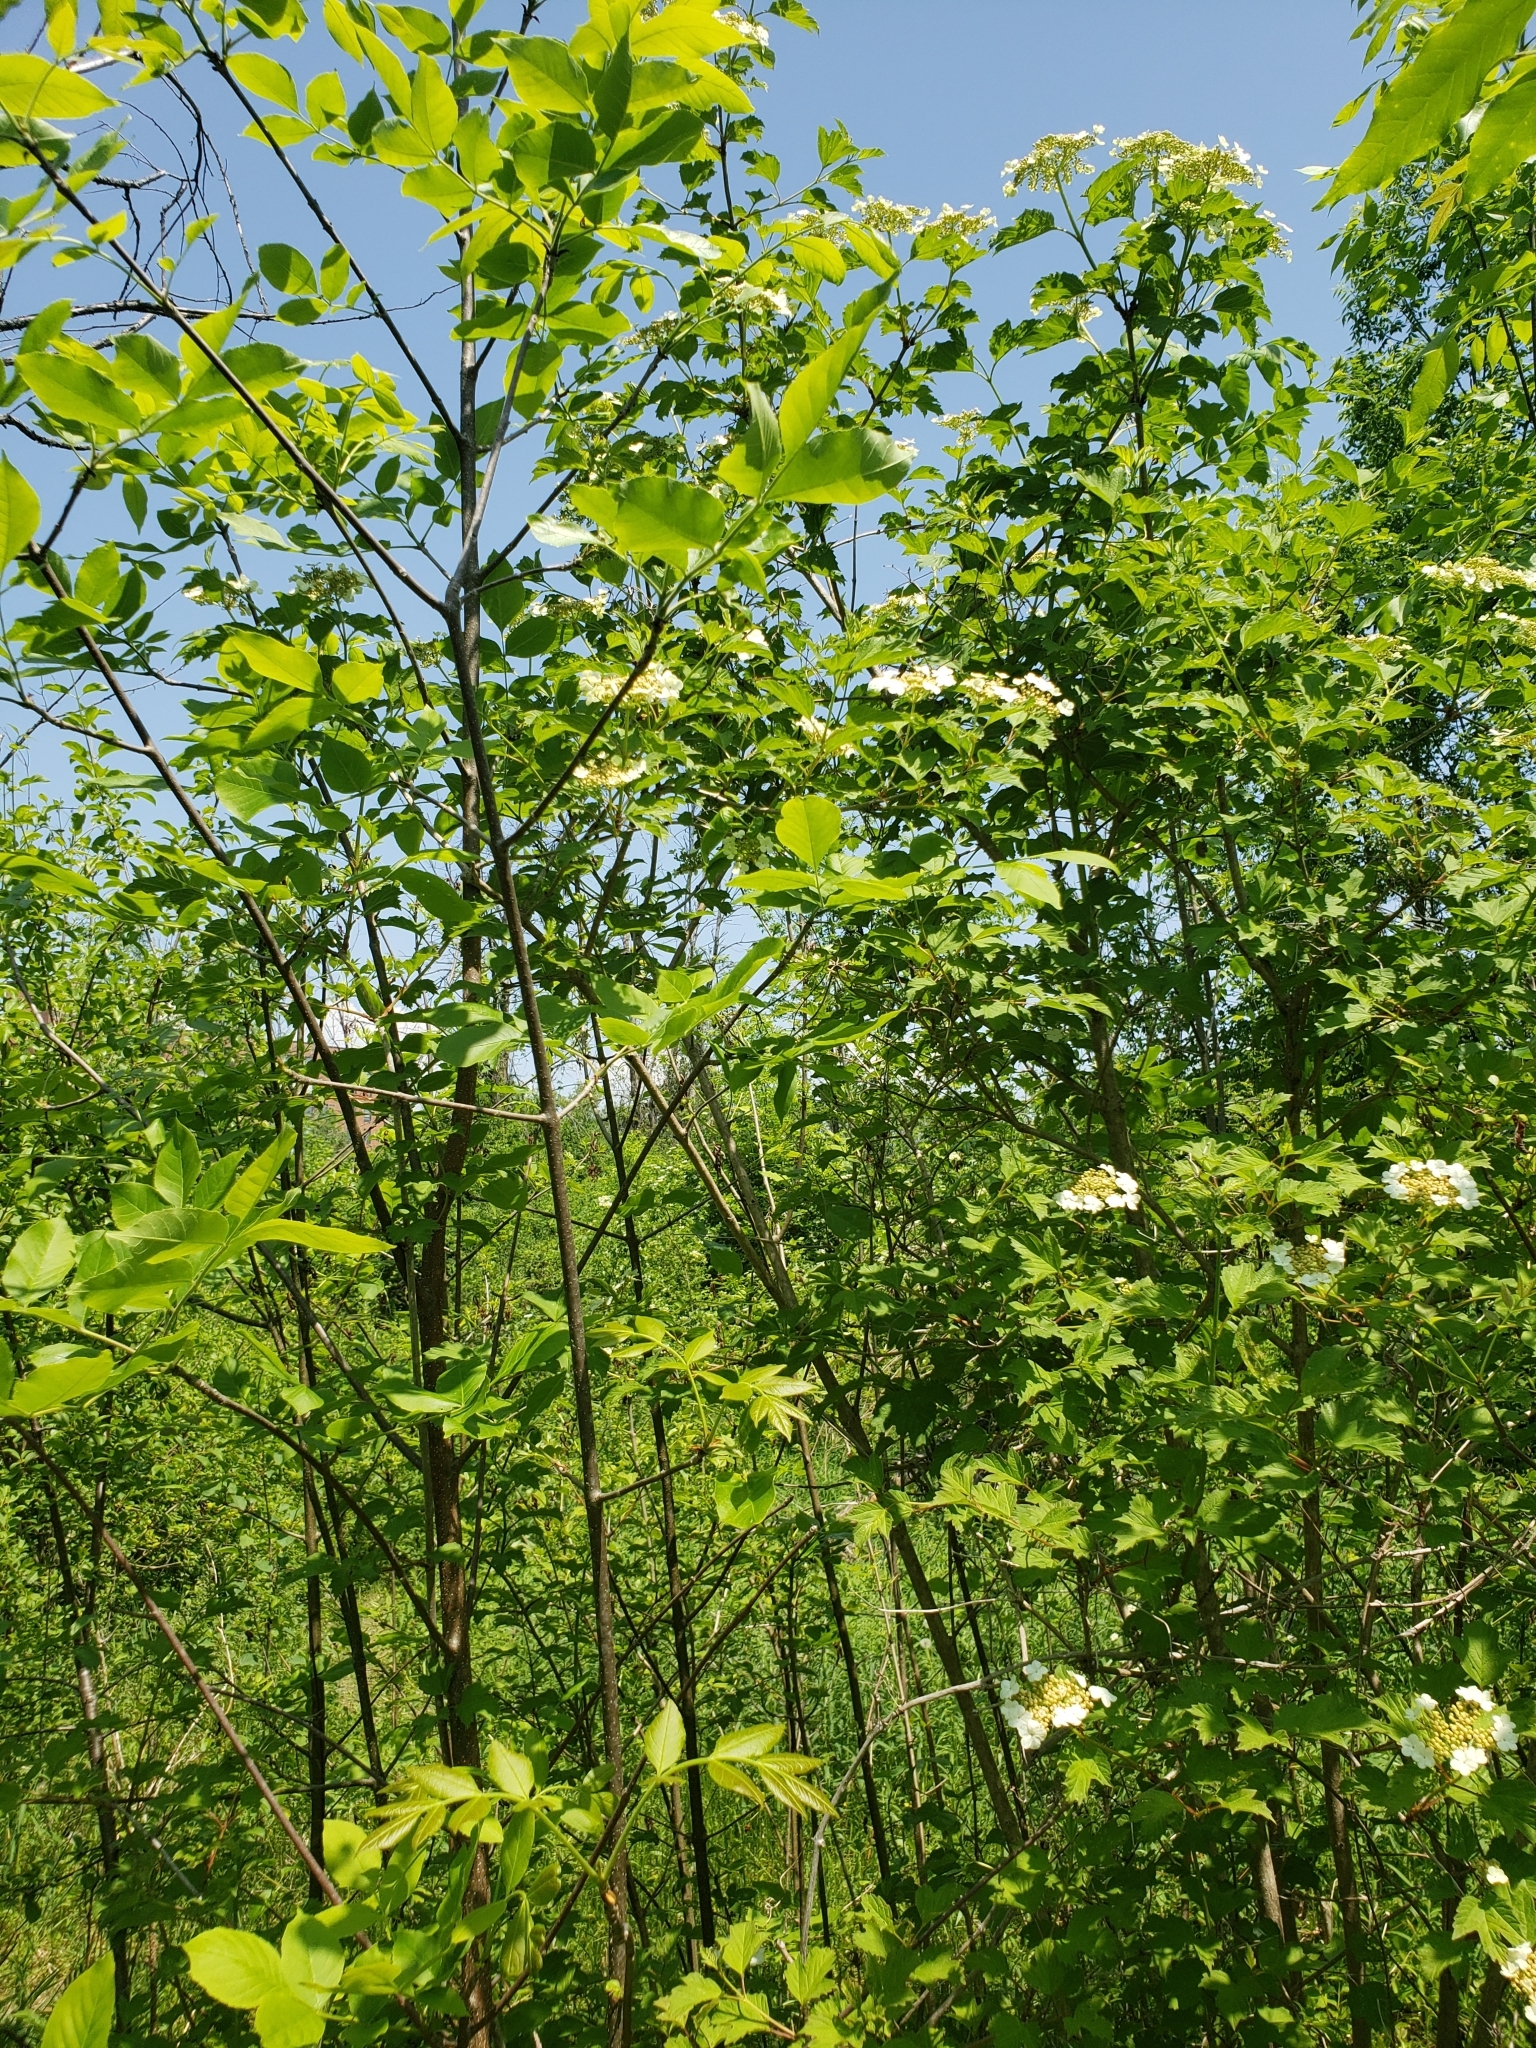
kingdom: Plantae
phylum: Tracheophyta
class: Magnoliopsida
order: Dipsacales
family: Viburnaceae
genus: Viburnum
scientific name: Viburnum opulus
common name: Guelder-rose
